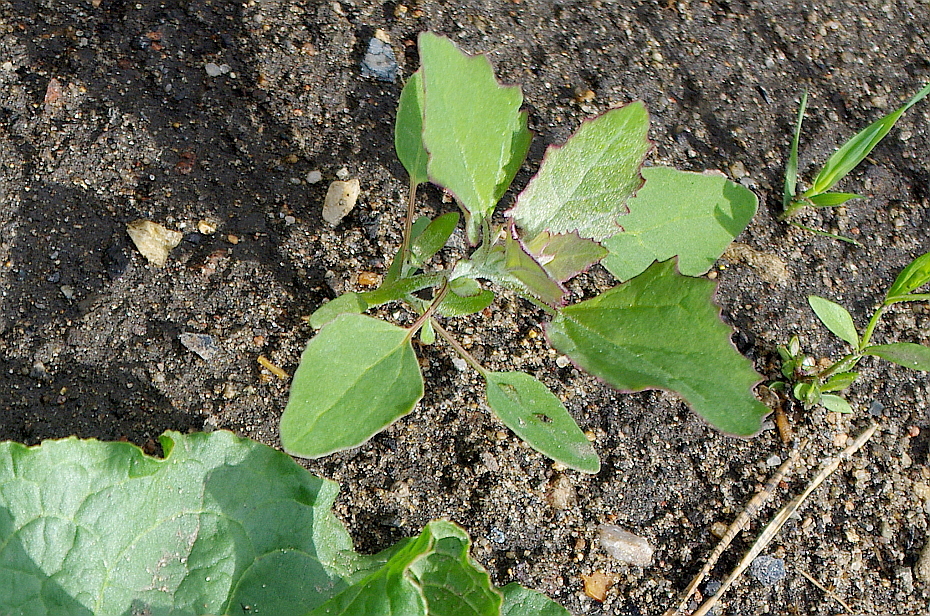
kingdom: Plantae
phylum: Tracheophyta
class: Magnoliopsida
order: Caryophyllales
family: Amaranthaceae
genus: Chenopodium
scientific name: Chenopodium album
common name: Fat-hen
